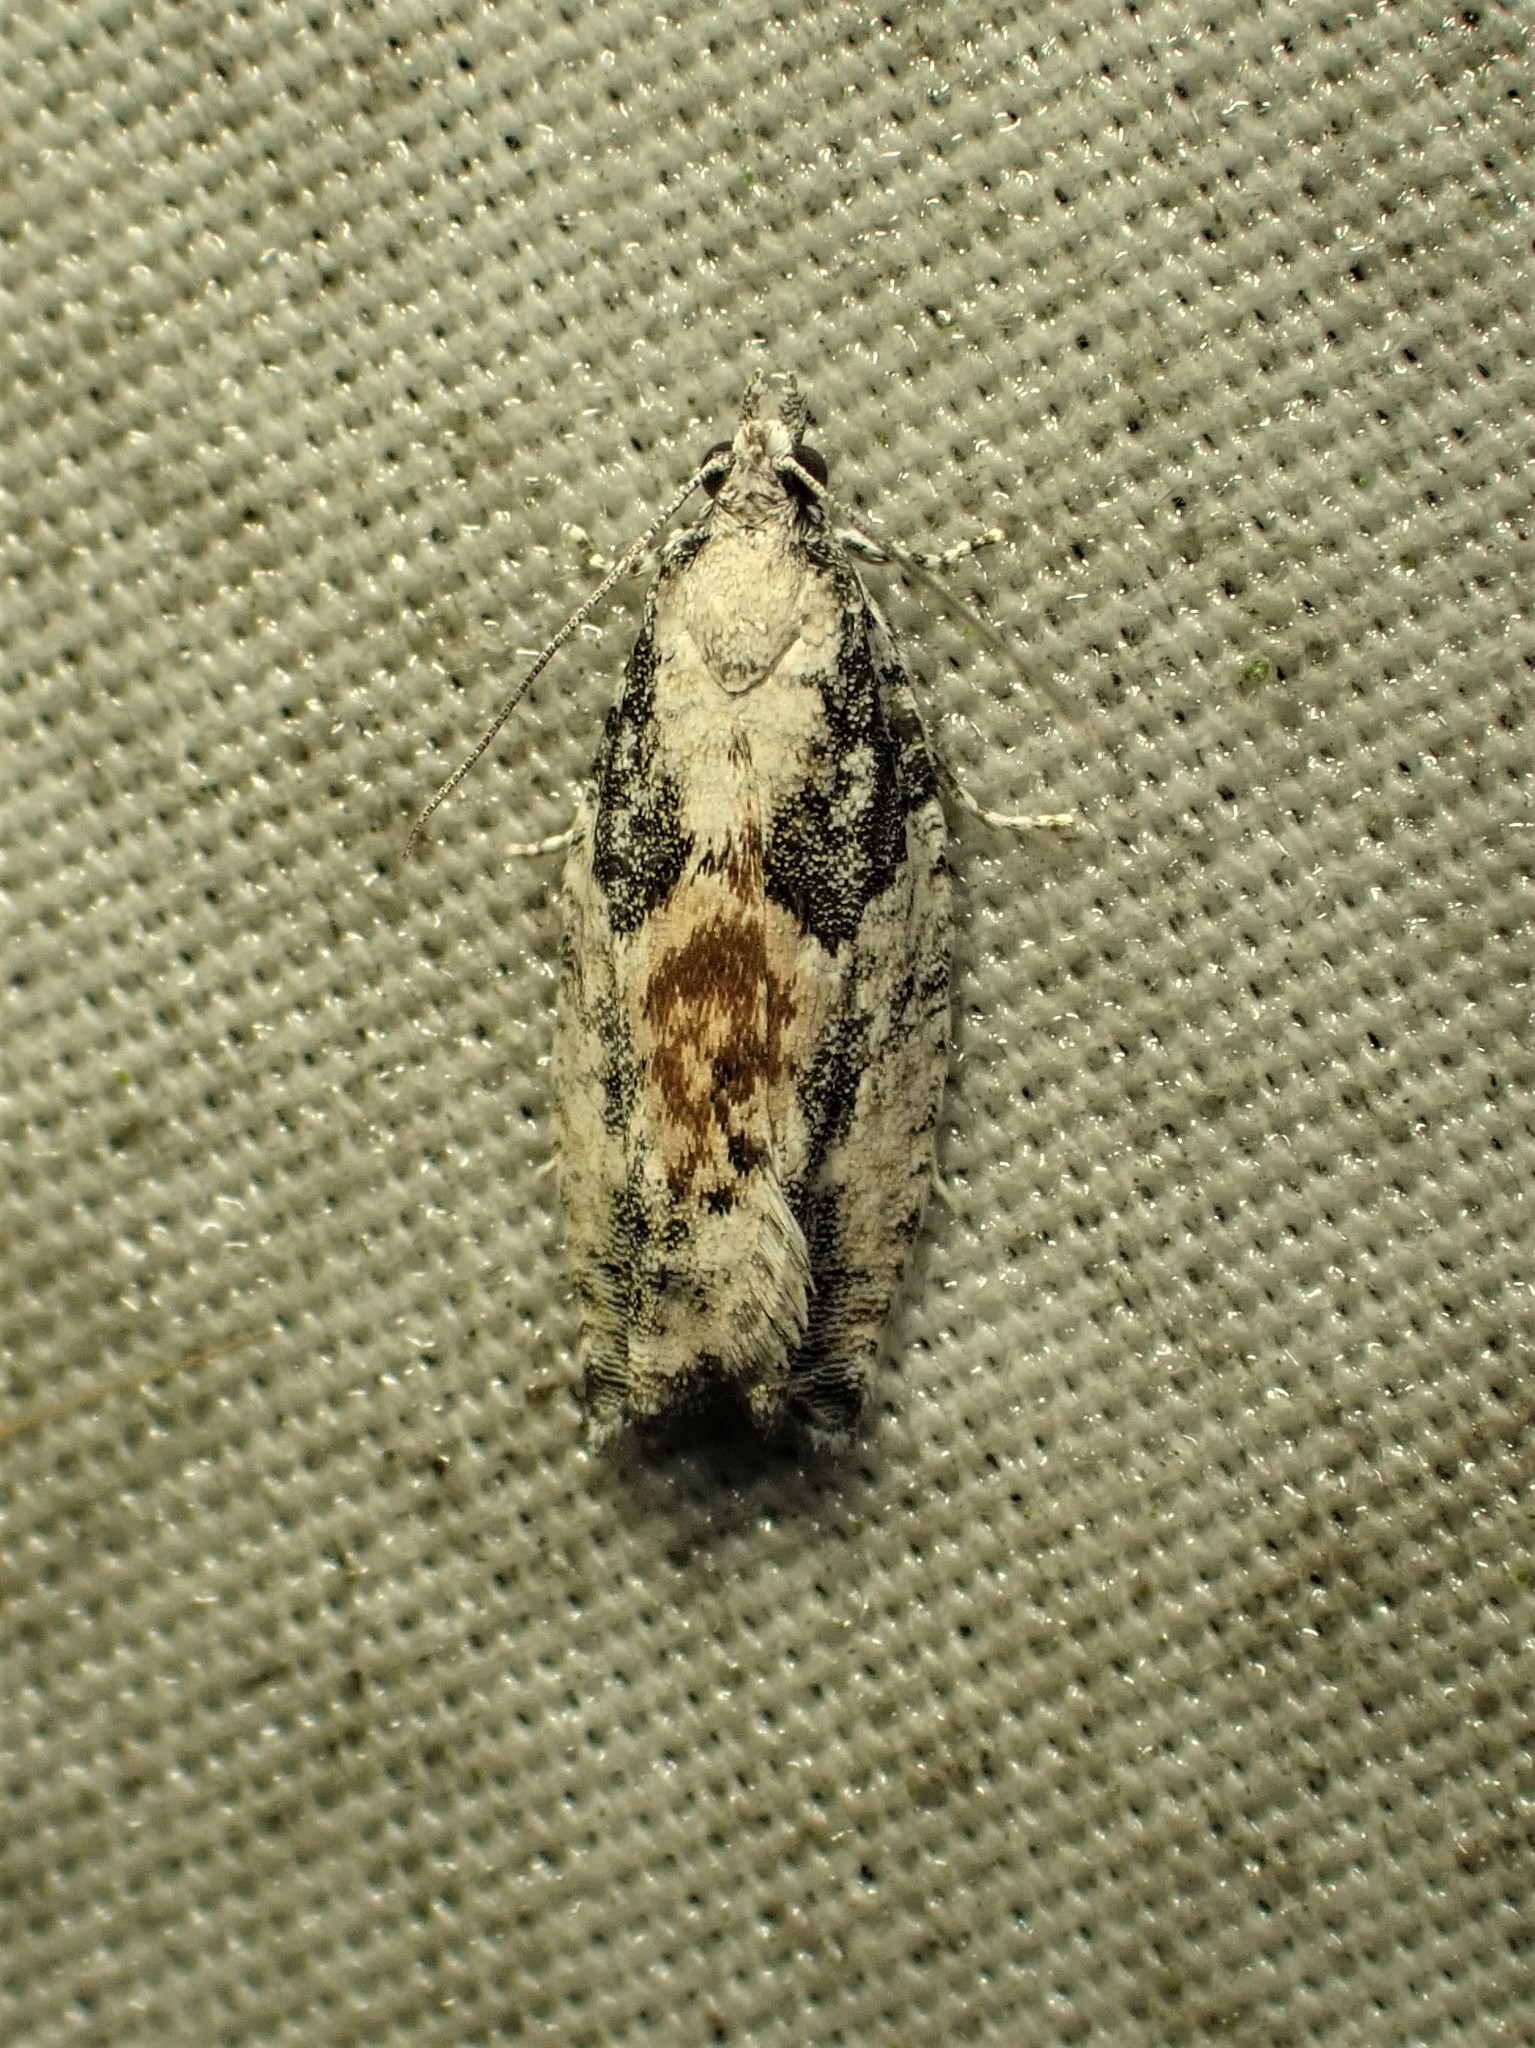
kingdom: Animalia
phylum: Arthropoda
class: Insecta
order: Lepidoptera
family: Tortricidae
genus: Epinotia
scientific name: Epinotia cinereana
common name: Grey aspen bell
